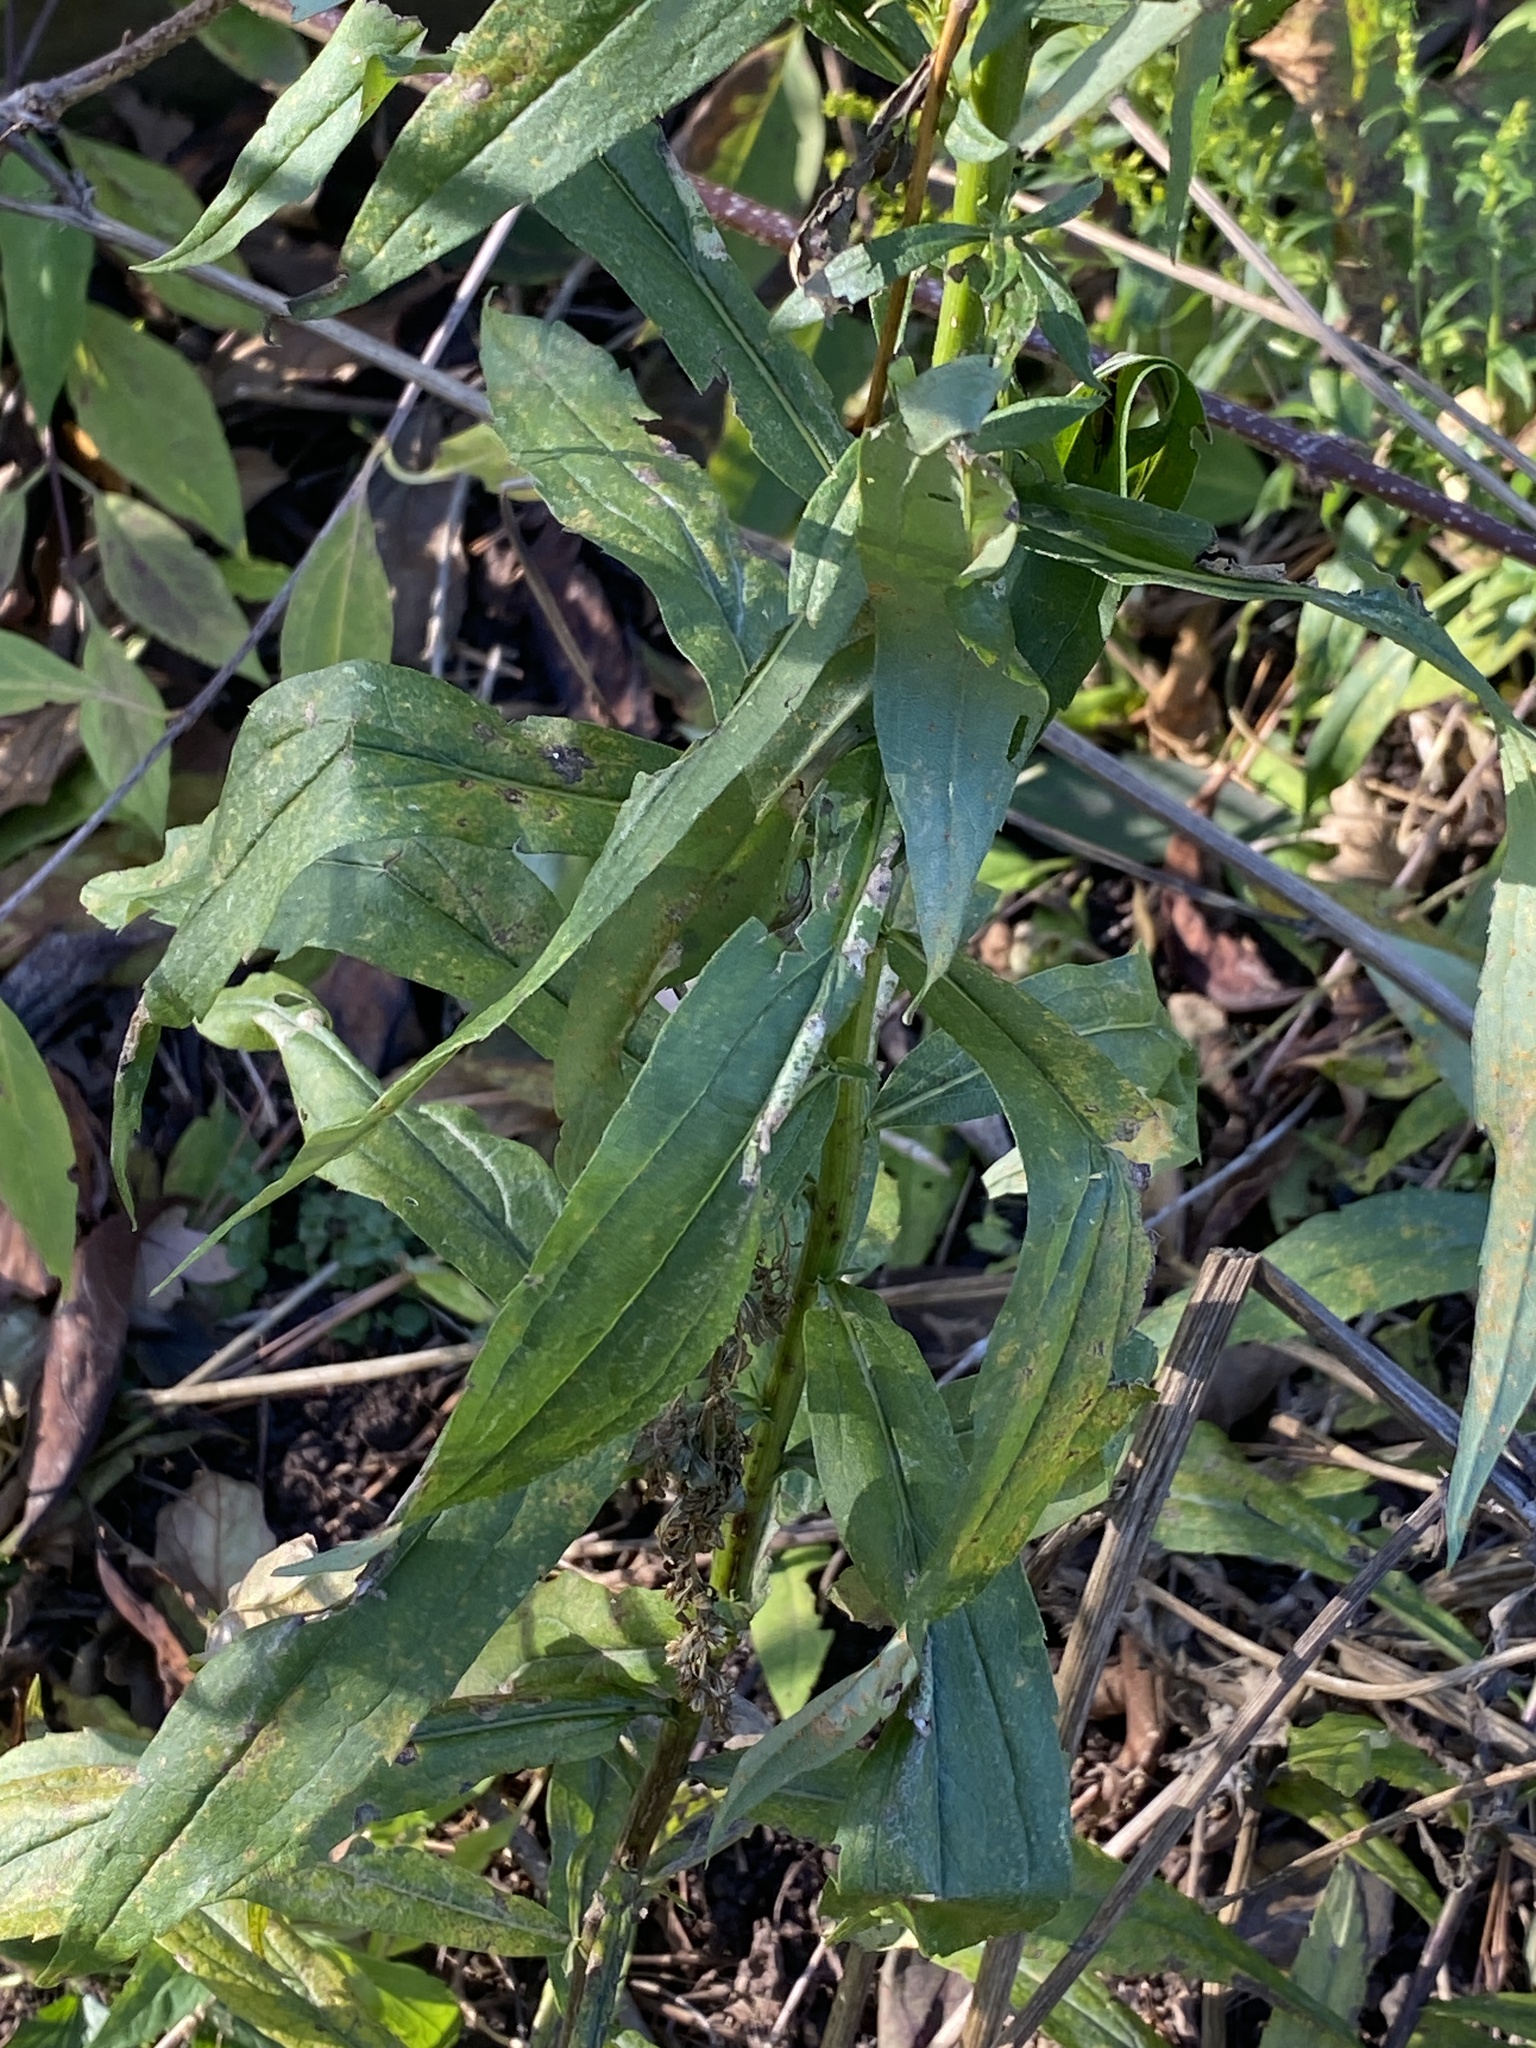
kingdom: Plantae
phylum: Tracheophyta
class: Magnoliopsida
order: Asterales
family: Asteraceae
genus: Solidago
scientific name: Solidago altissima
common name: Late goldenrod
